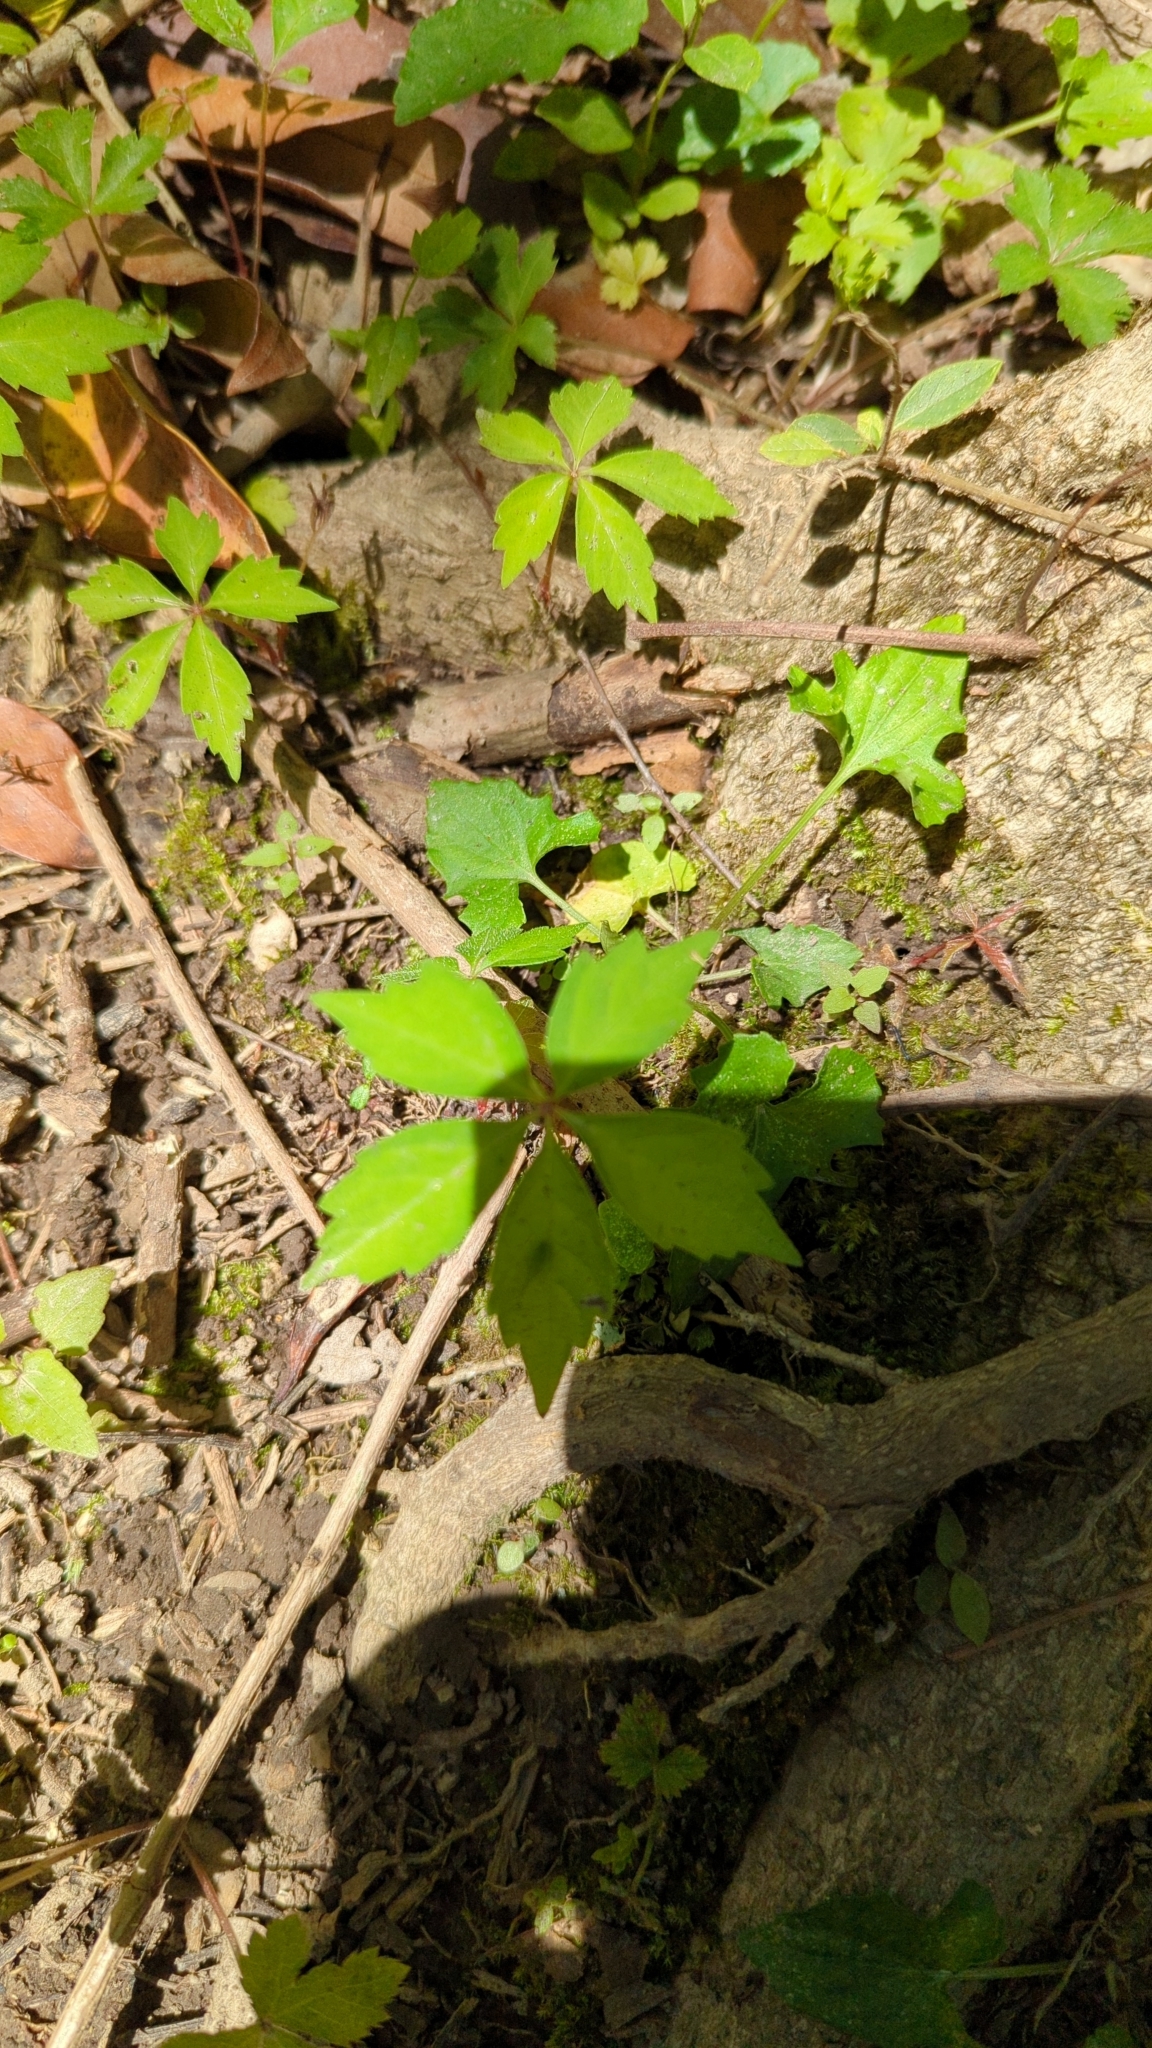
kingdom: Plantae
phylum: Tracheophyta
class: Magnoliopsida
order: Vitales
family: Vitaceae
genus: Parthenocissus
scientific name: Parthenocissus quinquefolia
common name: Virginia-creeper
